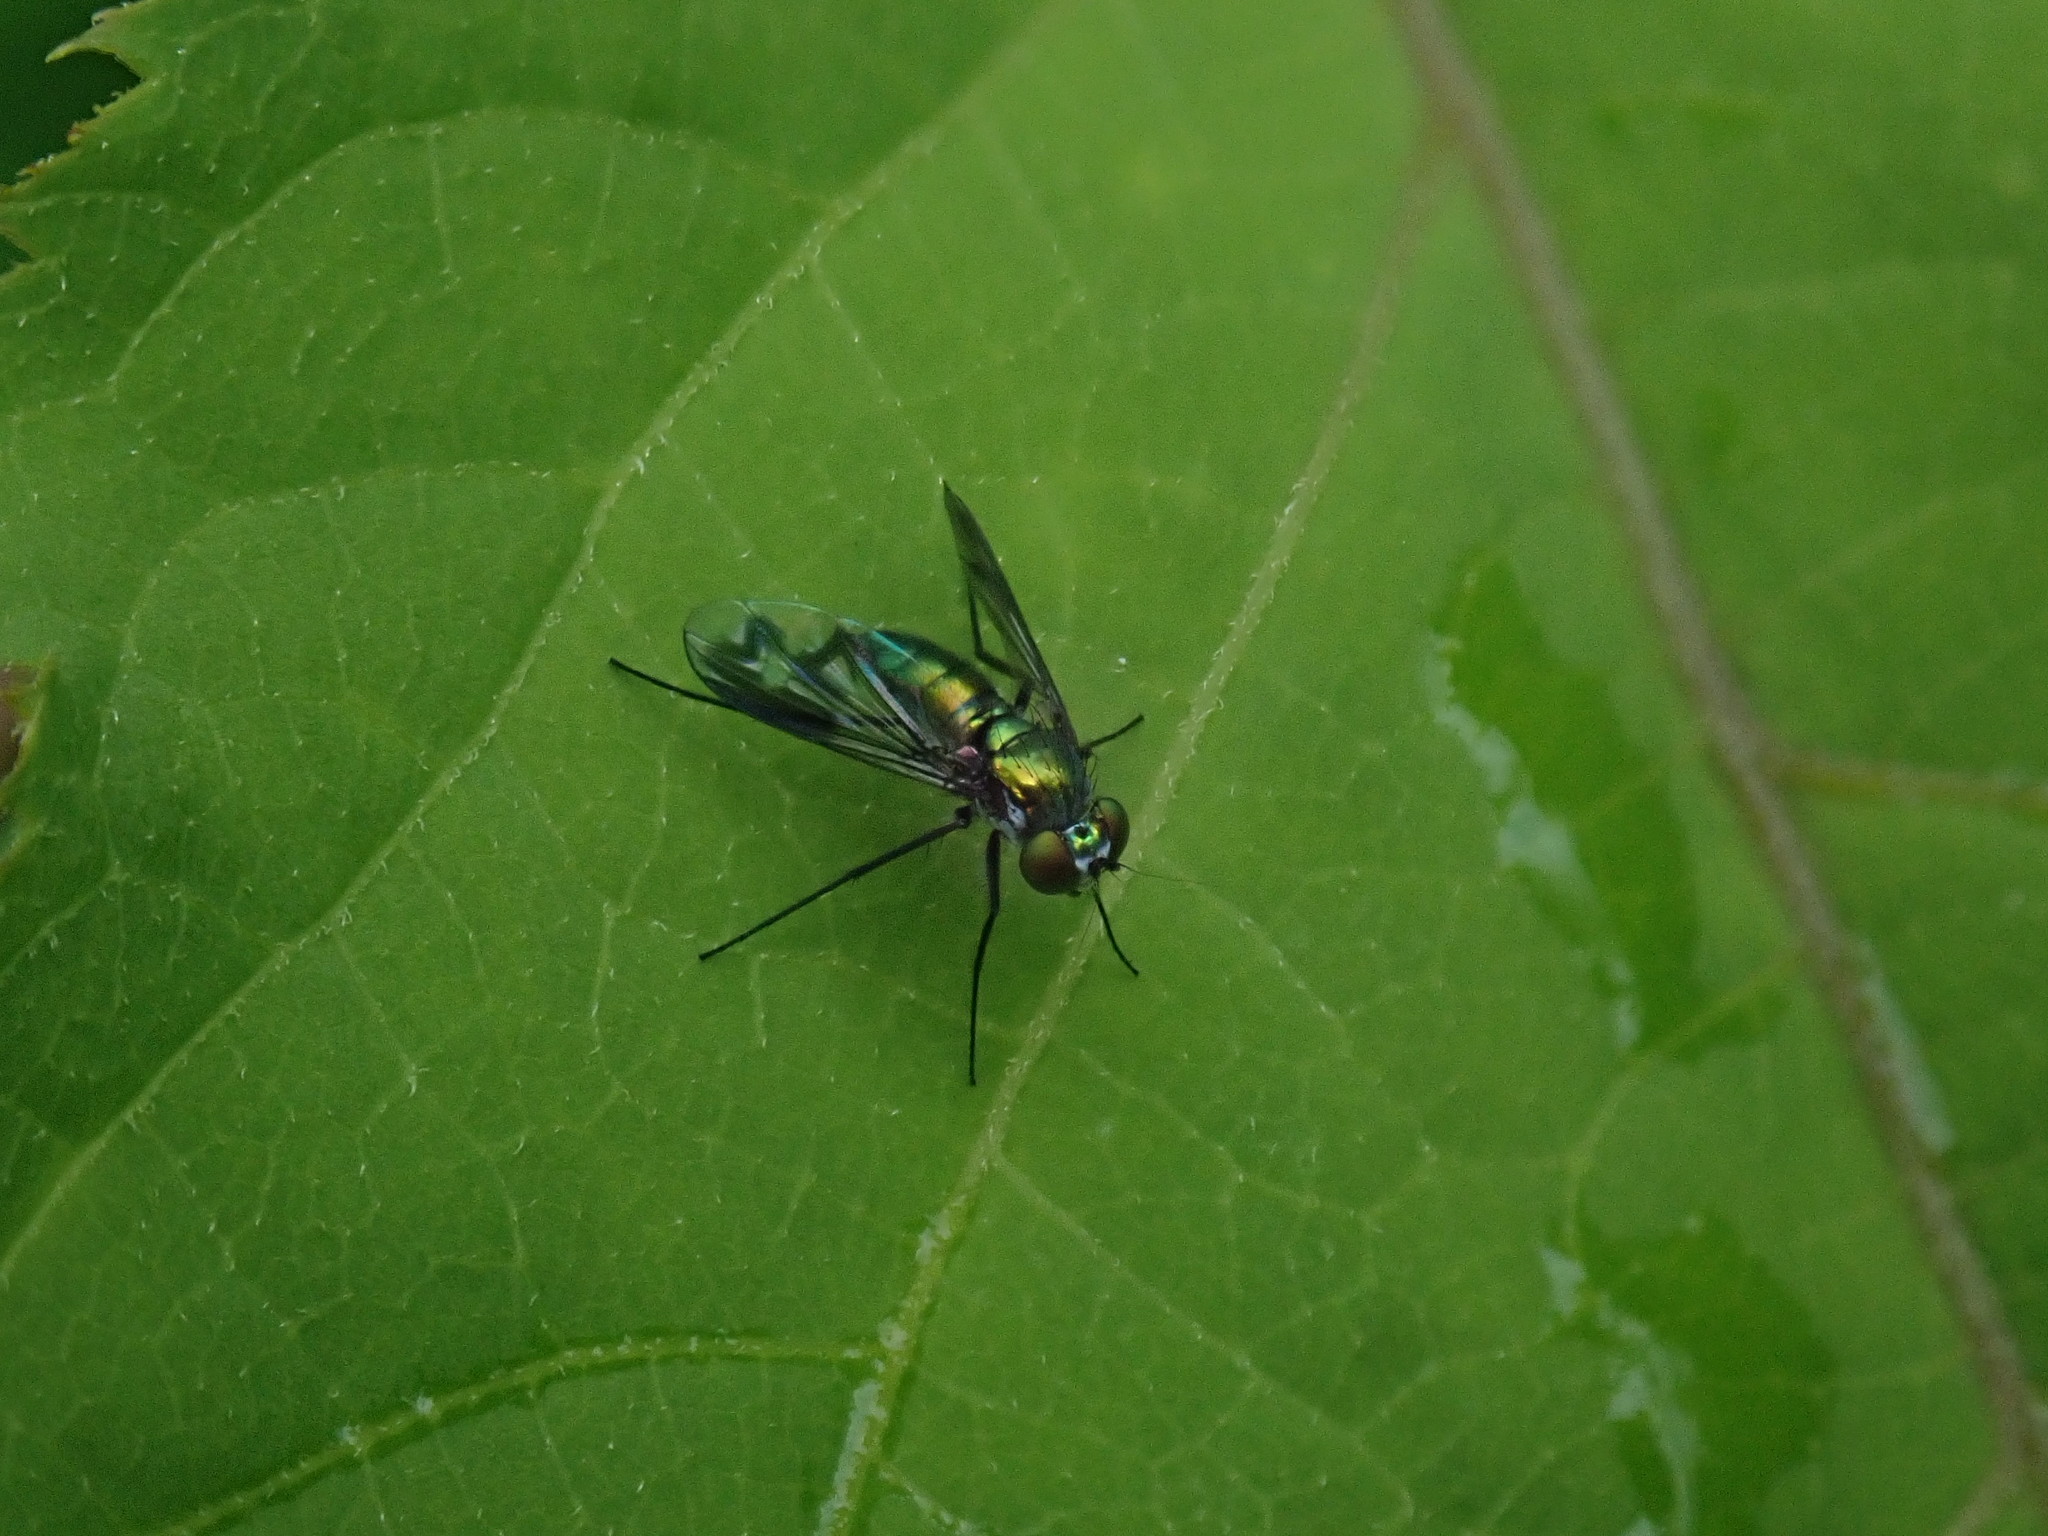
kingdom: Animalia
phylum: Arthropoda
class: Insecta
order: Diptera
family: Dolichopodidae
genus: Condylostylus
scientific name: Condylostylus patibulatus
